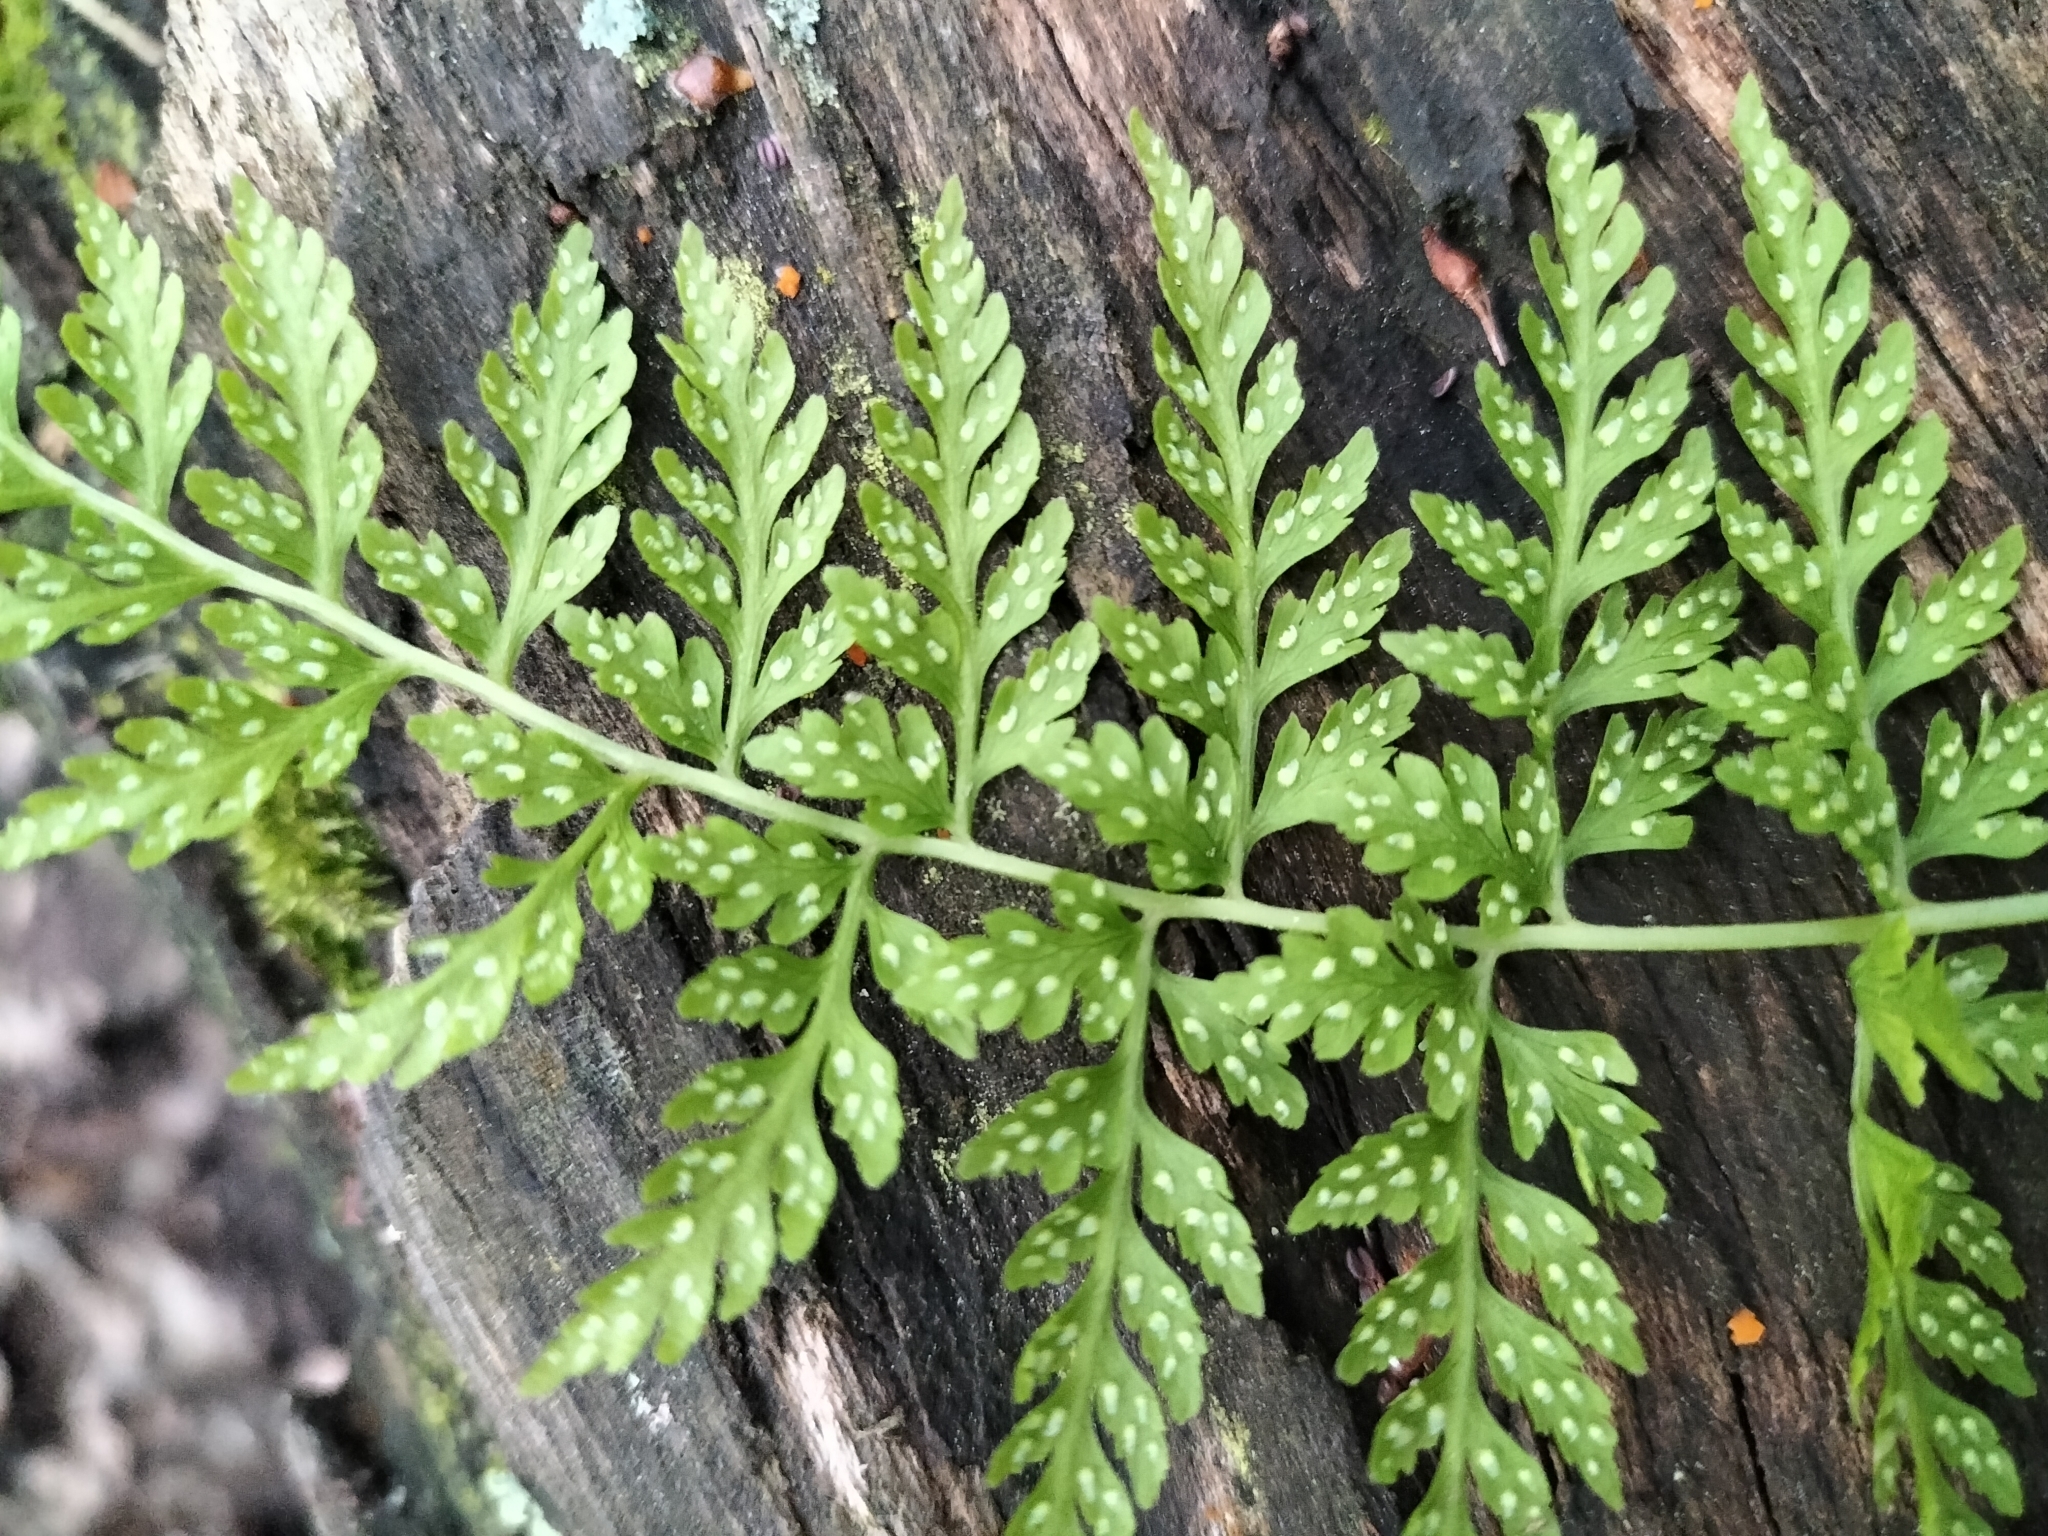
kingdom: Plantae
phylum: Tracheophyta
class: Polypodiopsida
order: Polypodiales
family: Cystopteridaceae
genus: Cystopteris
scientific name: Cystopteris fragilis
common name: Brittle bladder fern
